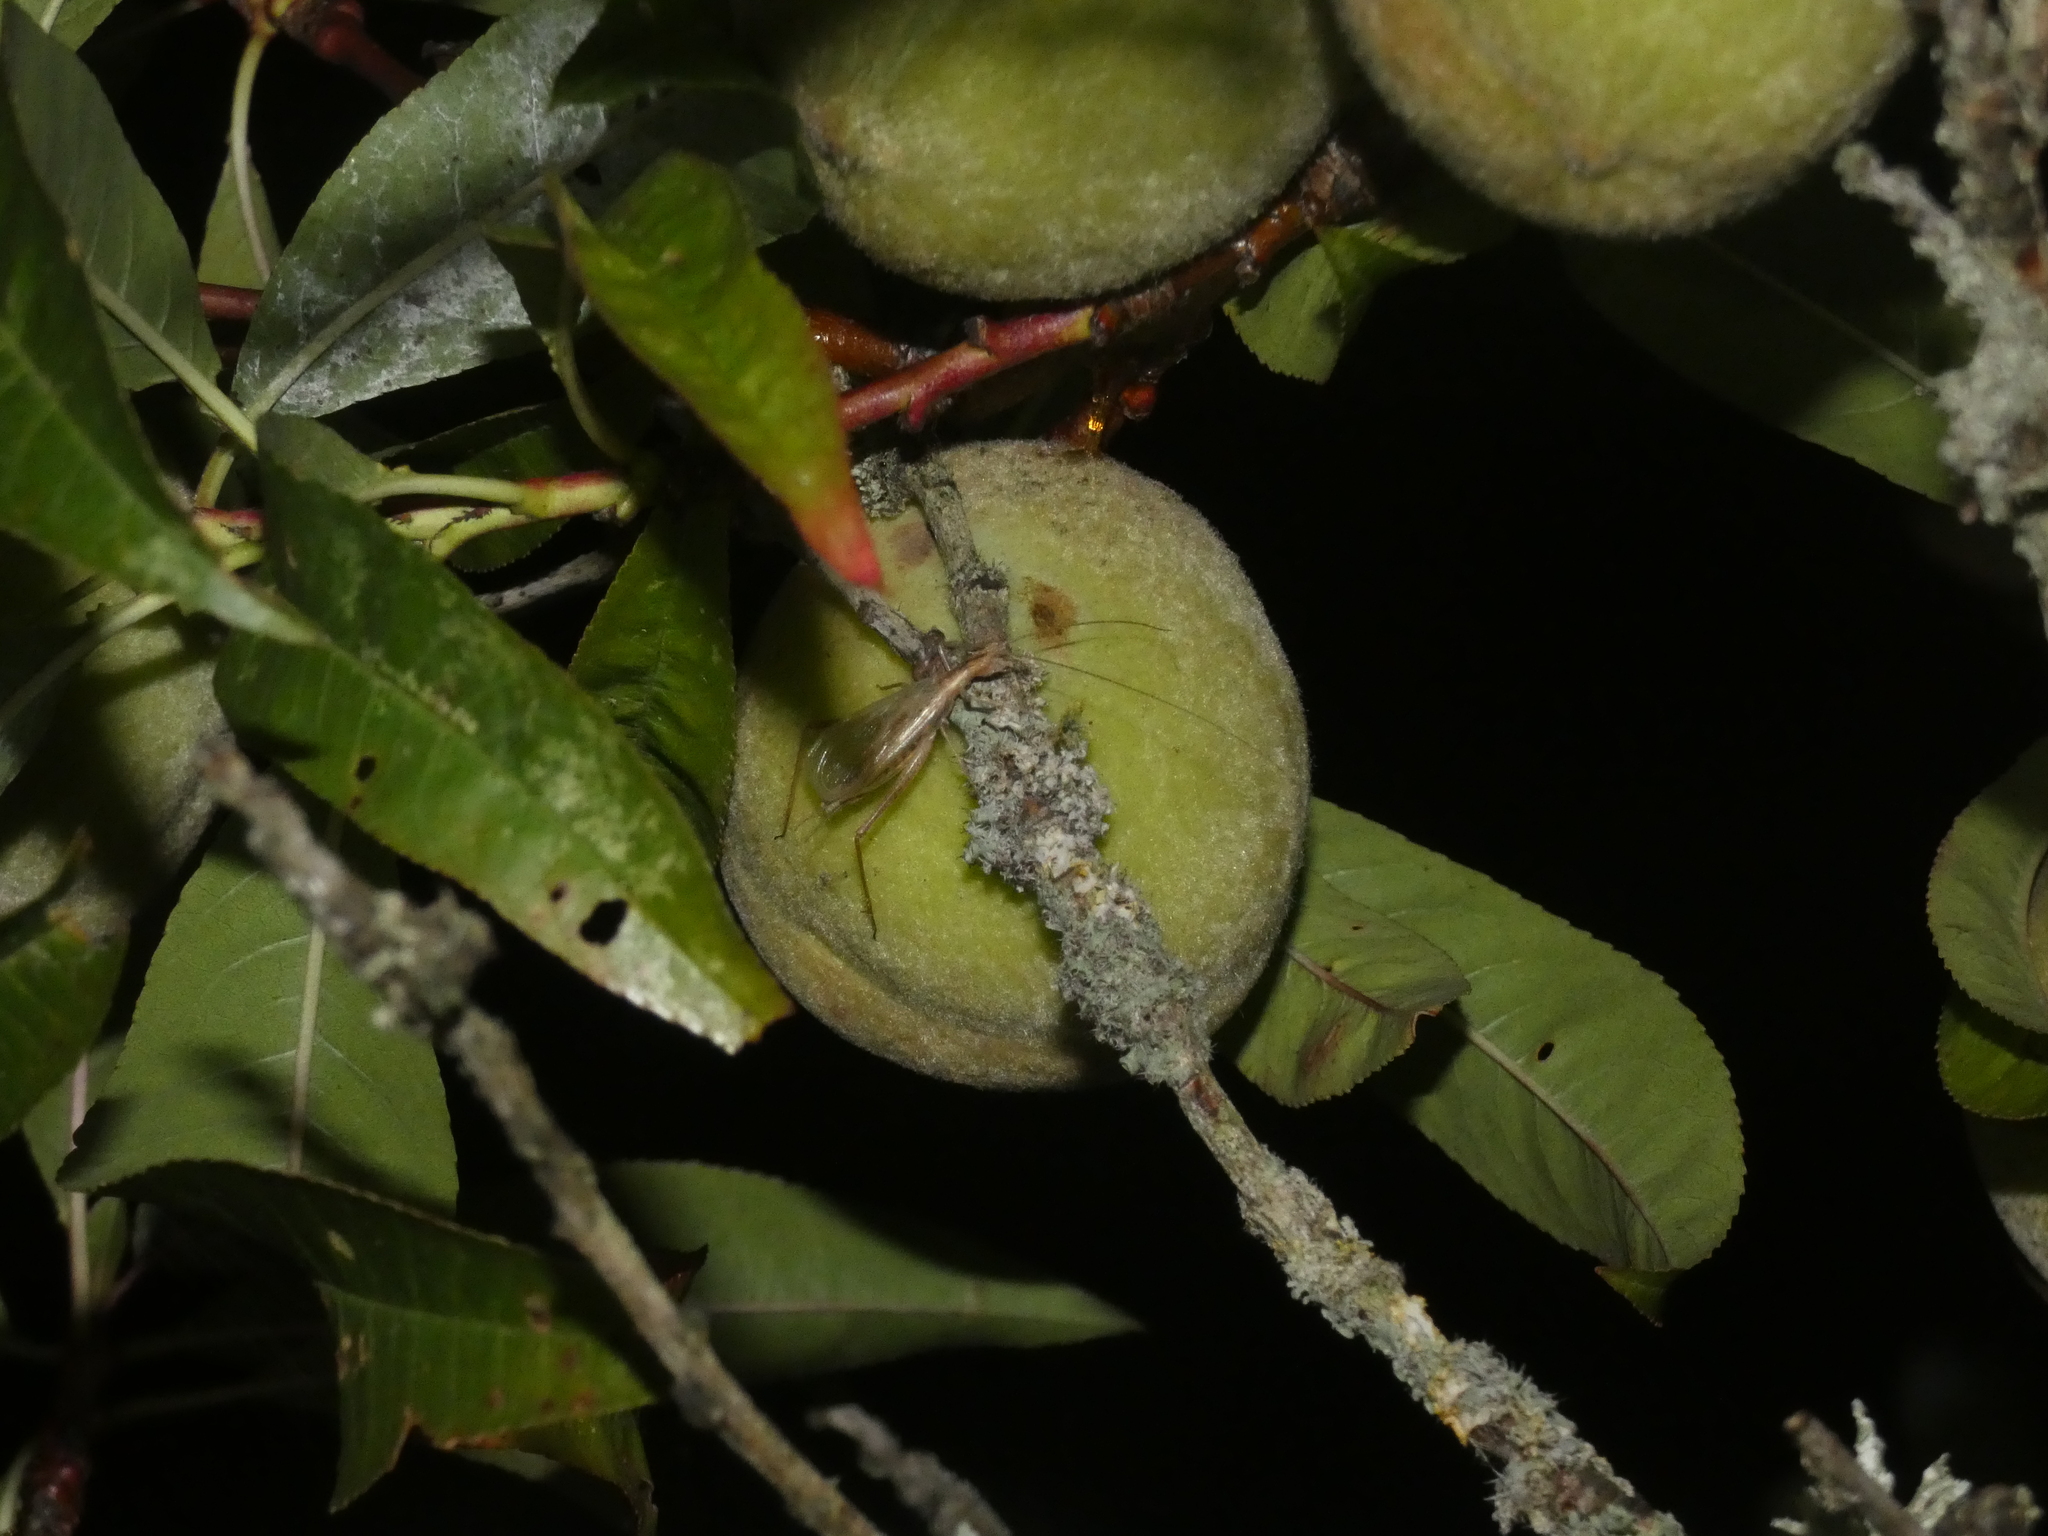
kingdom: Animalia
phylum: Arthropoda
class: Insecta
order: Orthoptera
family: Gryllidae
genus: Oecanthus
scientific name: Oecanthus pellucens
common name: Tree-cricket
